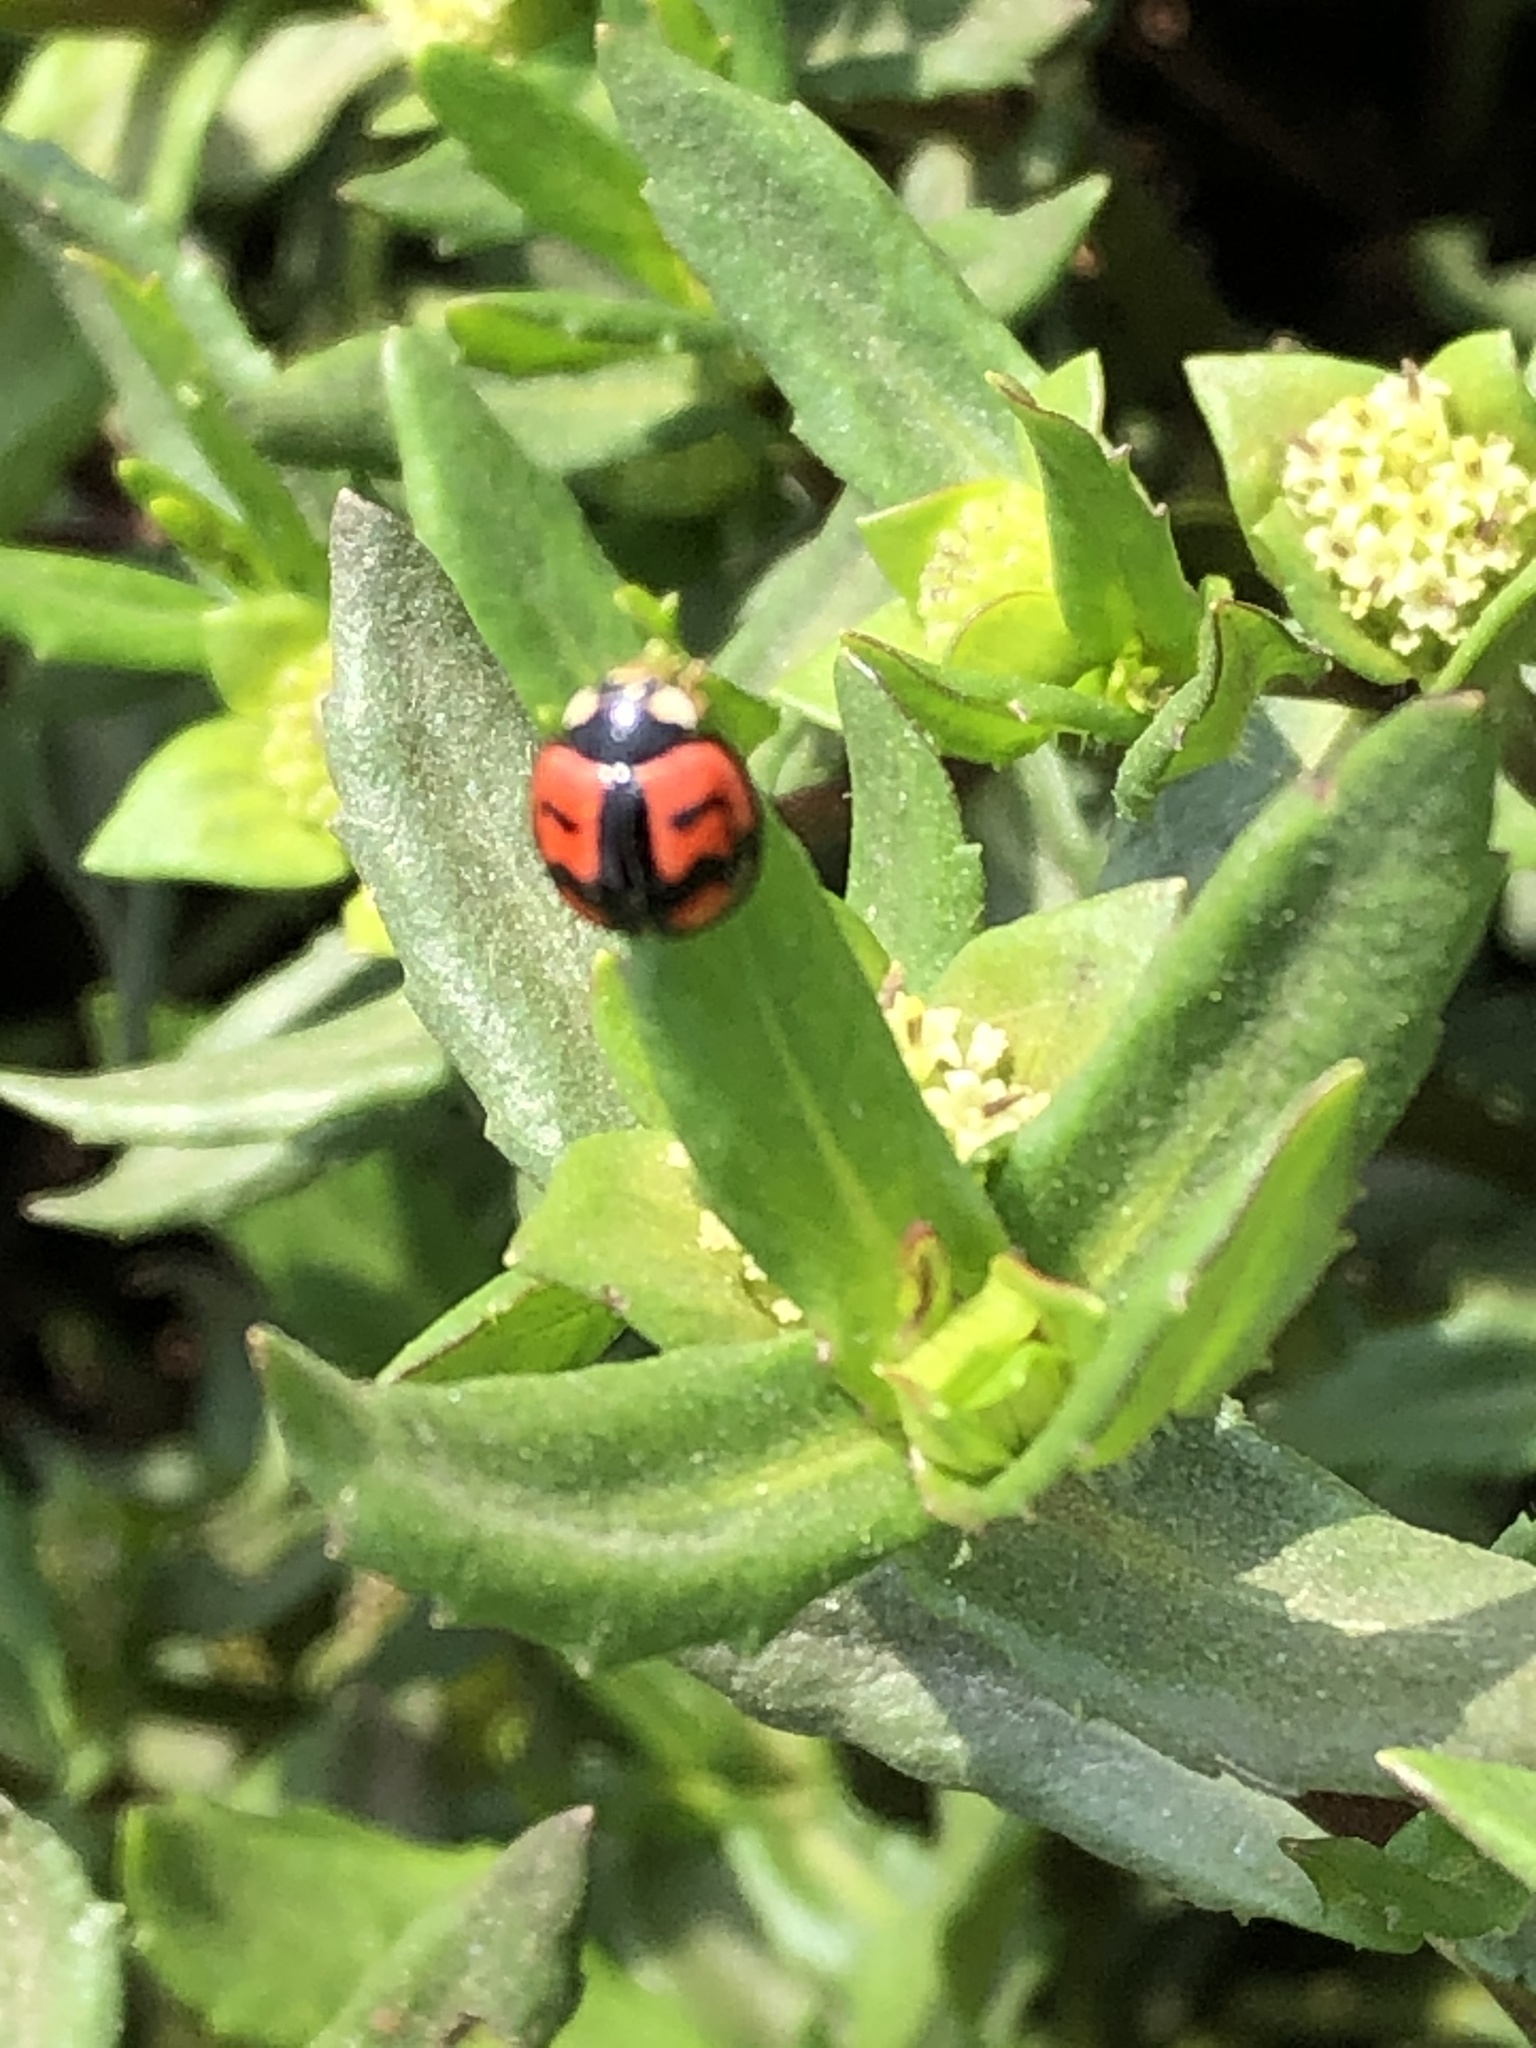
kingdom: Animalia
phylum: Arthropoda
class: Insecta
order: Coleoptera
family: Coccinellidae
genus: Cheilomenes
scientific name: Cheilomenes sexmaculata
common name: Ladybird beetle
